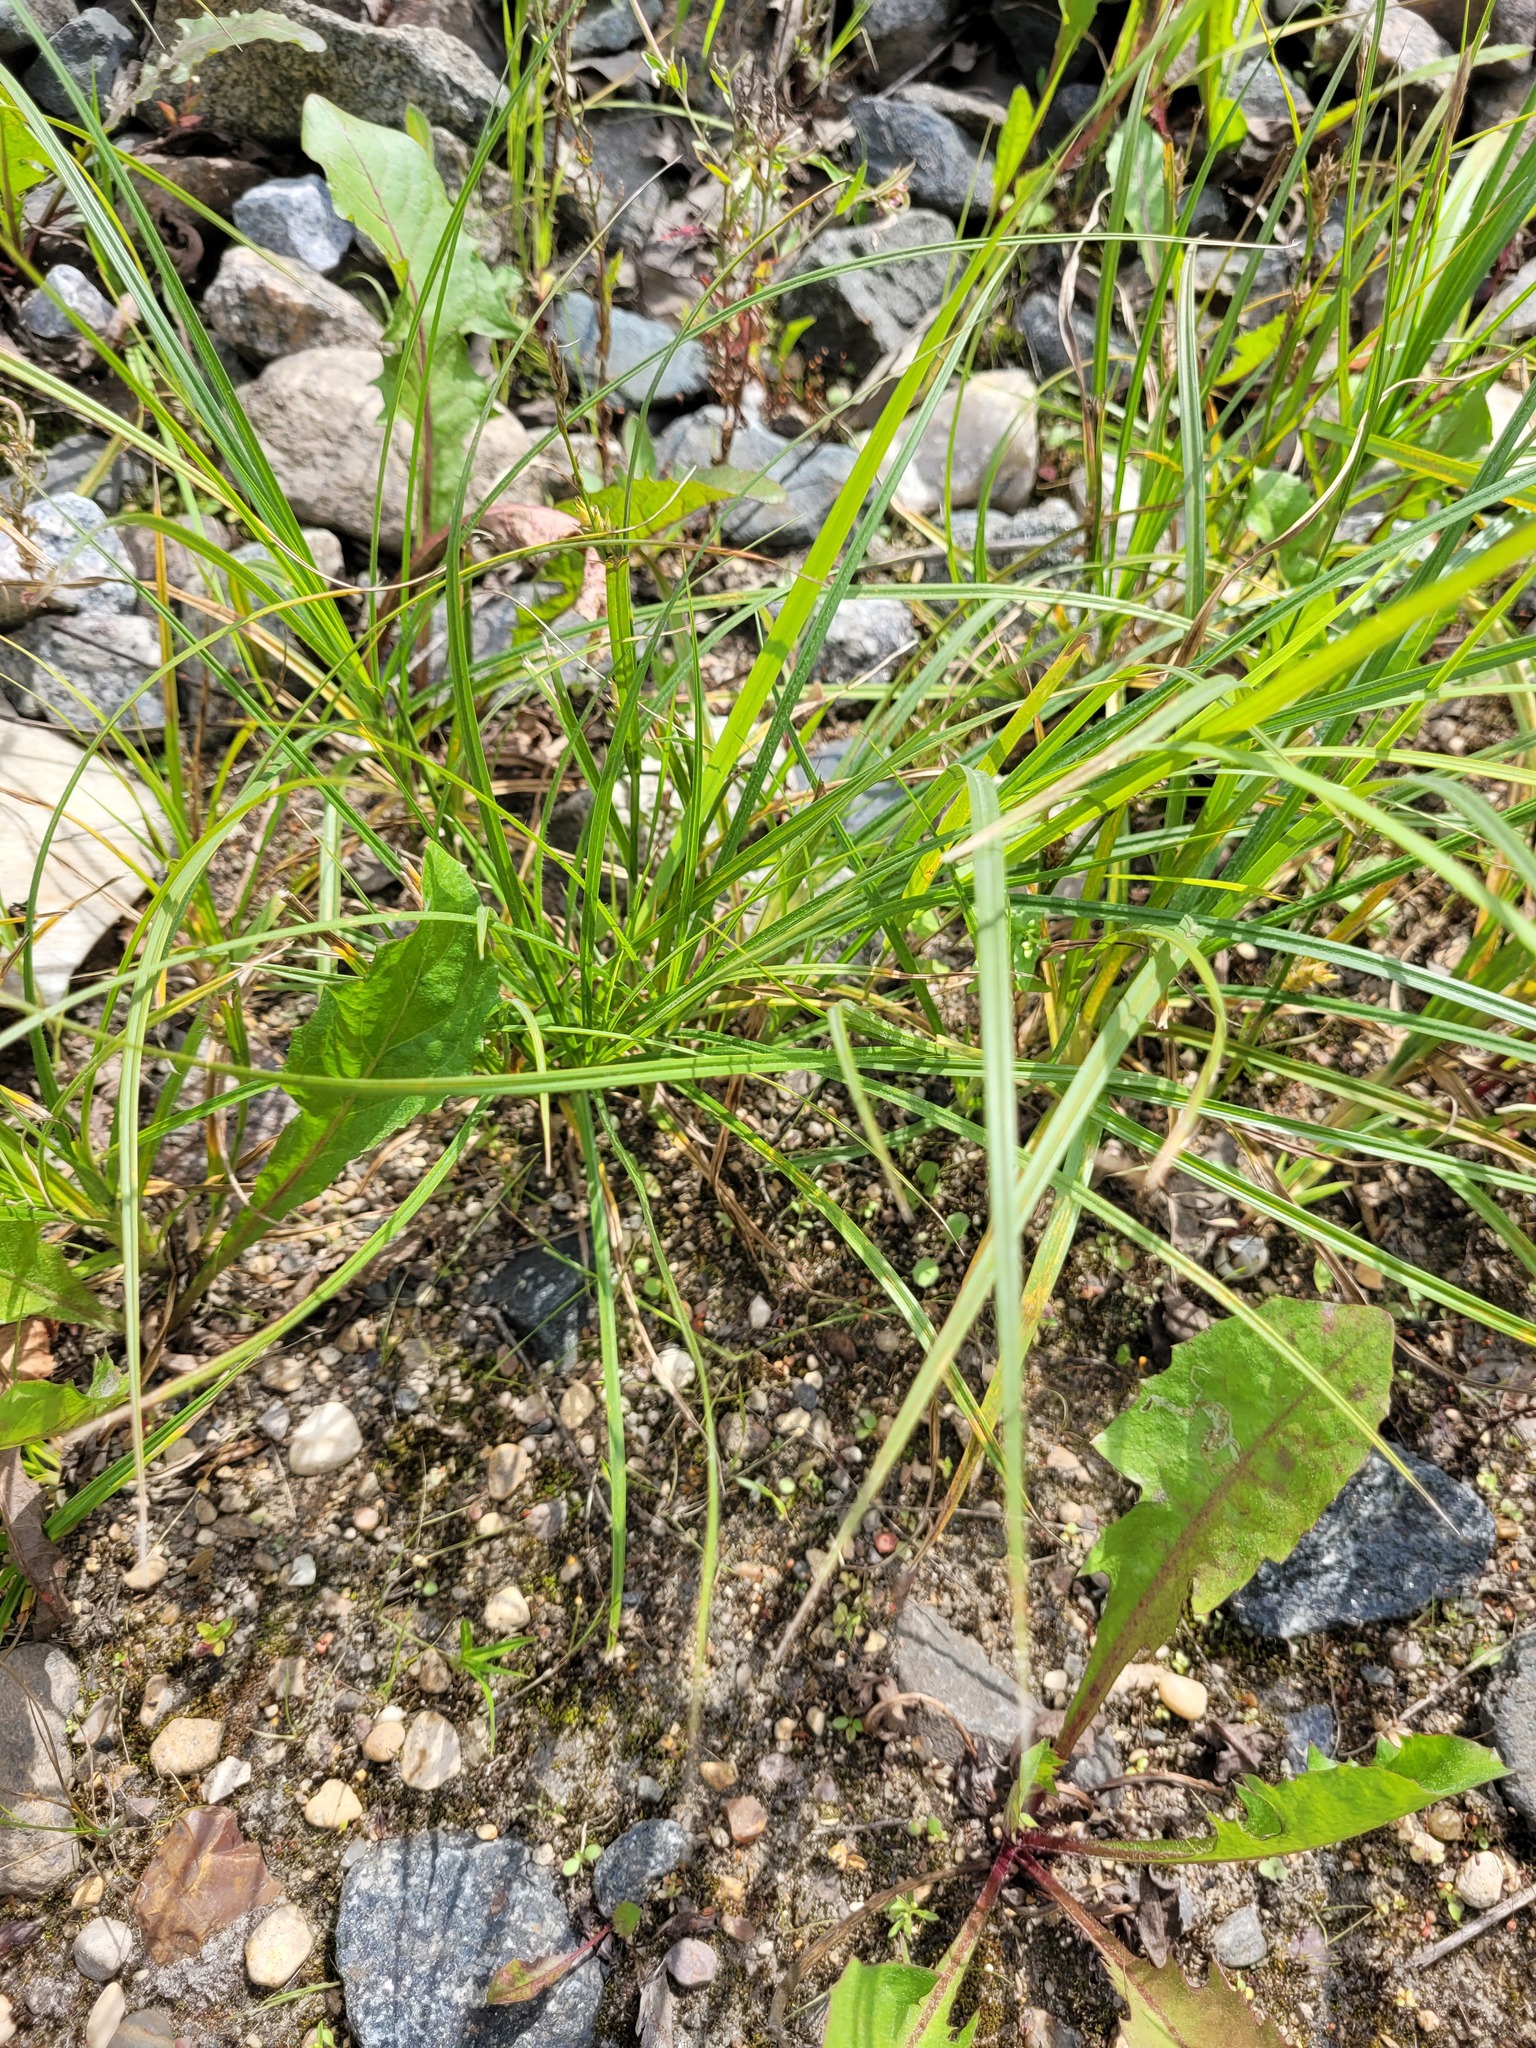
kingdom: Plantae
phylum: Tracheophyta
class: Liliopsida
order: Poales
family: Cyperaceae
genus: Carex
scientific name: Carex hirta
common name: Hairy sedge
